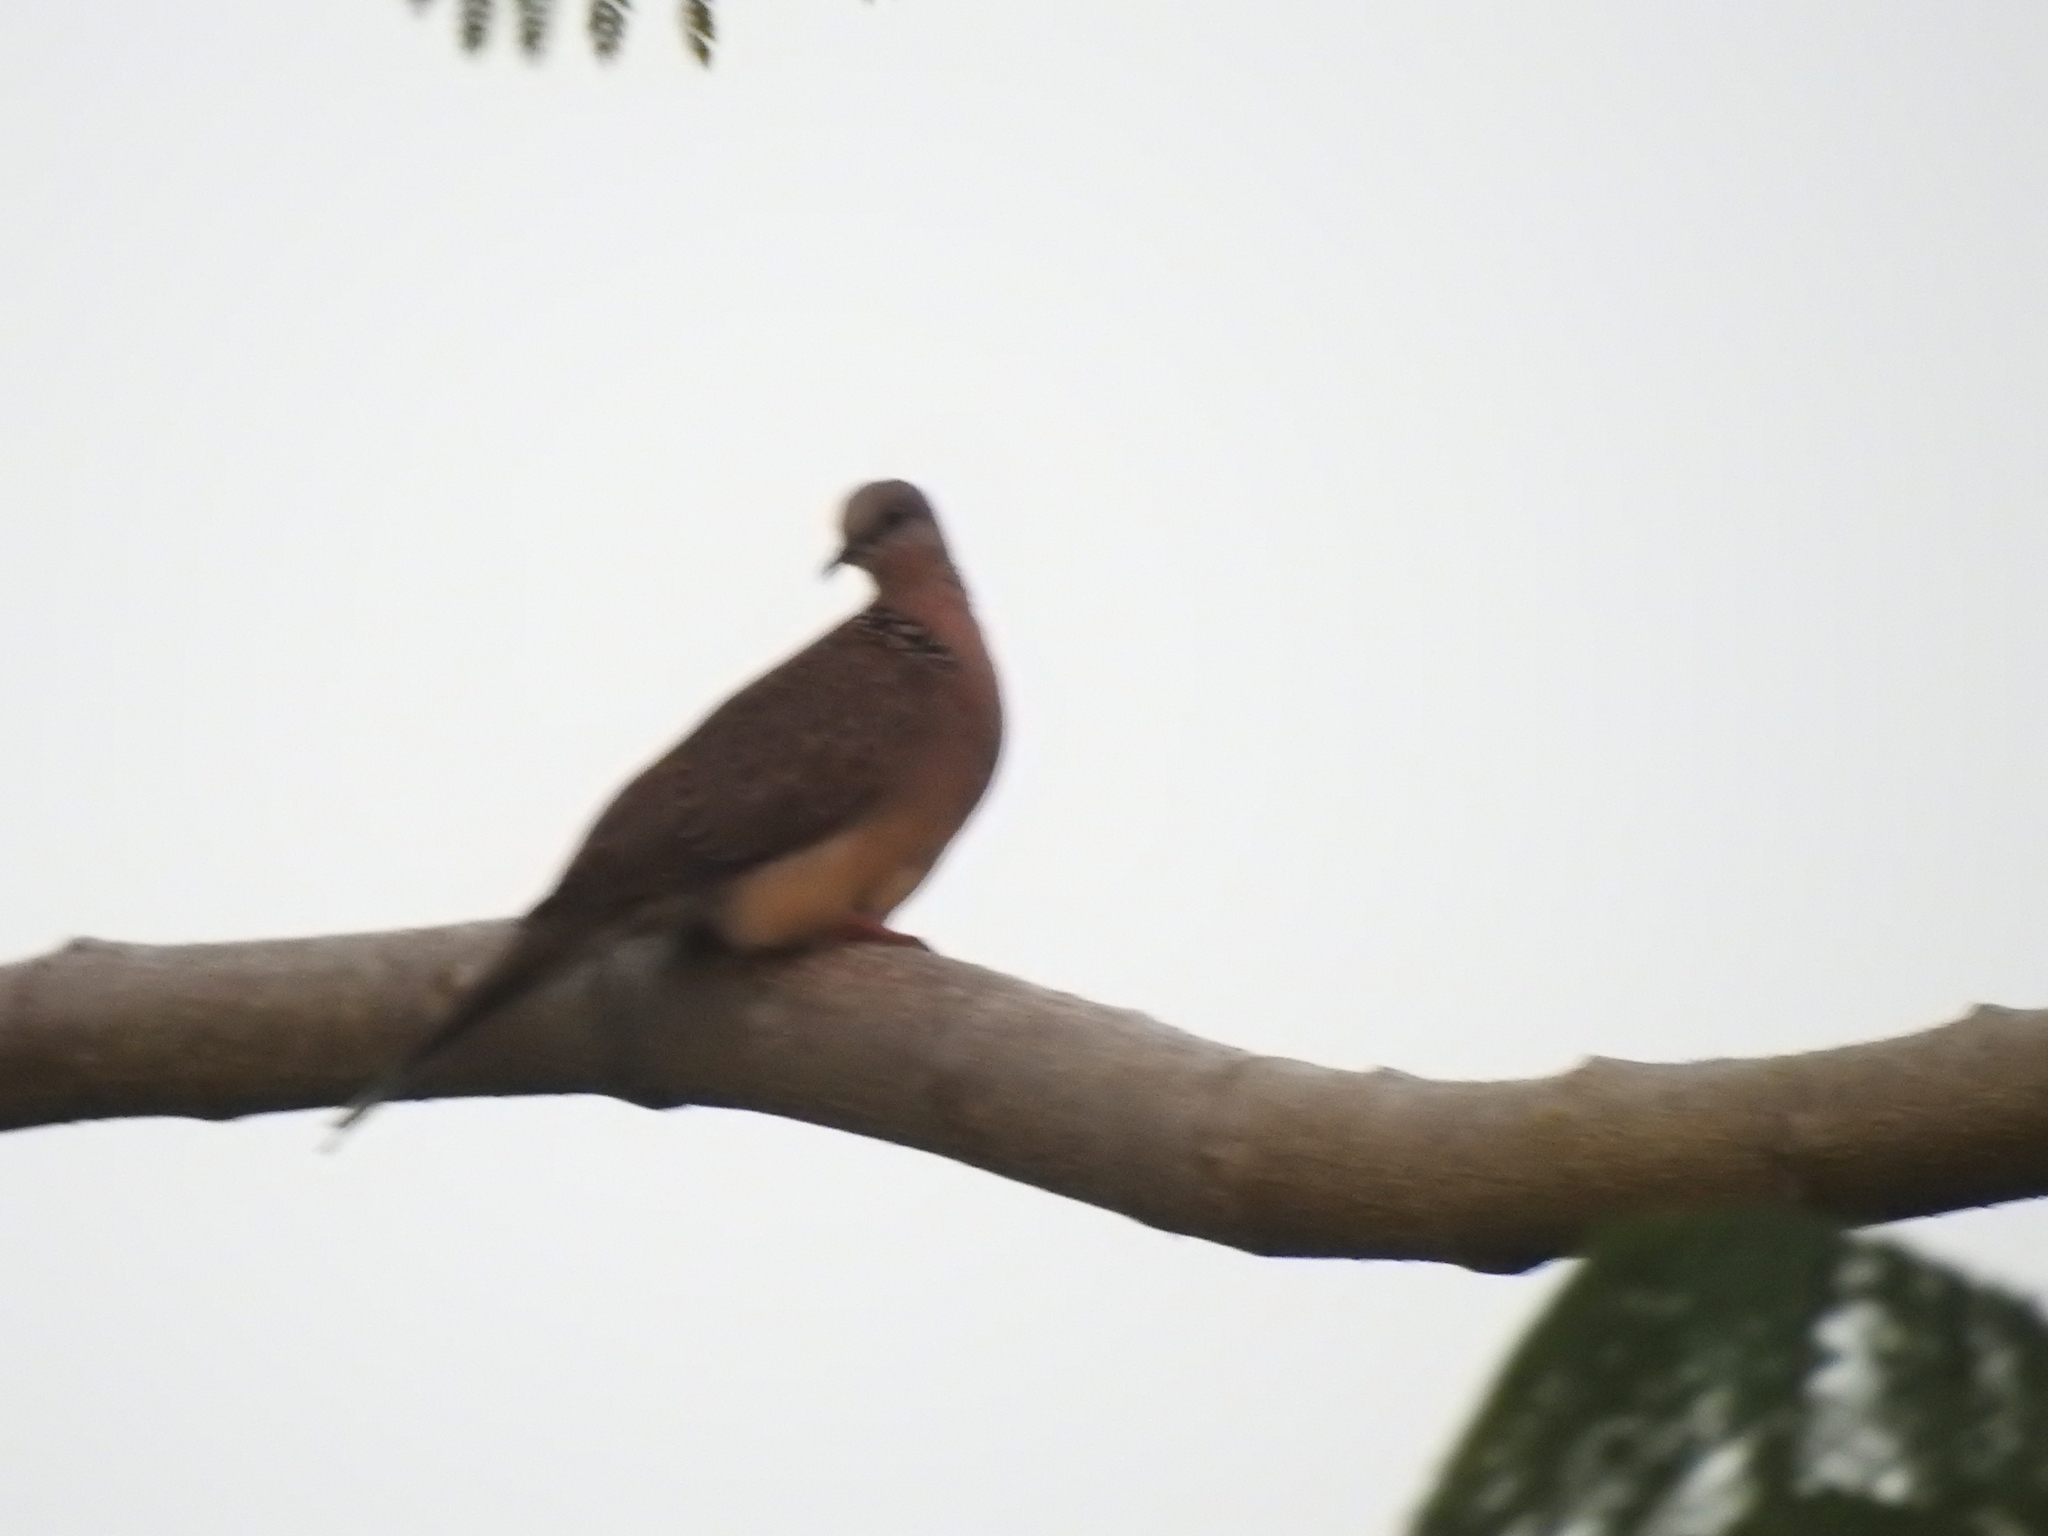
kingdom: Animalia
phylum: Chordata
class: Aves
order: Columbiformes
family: Columbidae
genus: Spilopelia
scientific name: Spilopelia chinensis
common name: Spotted dove
